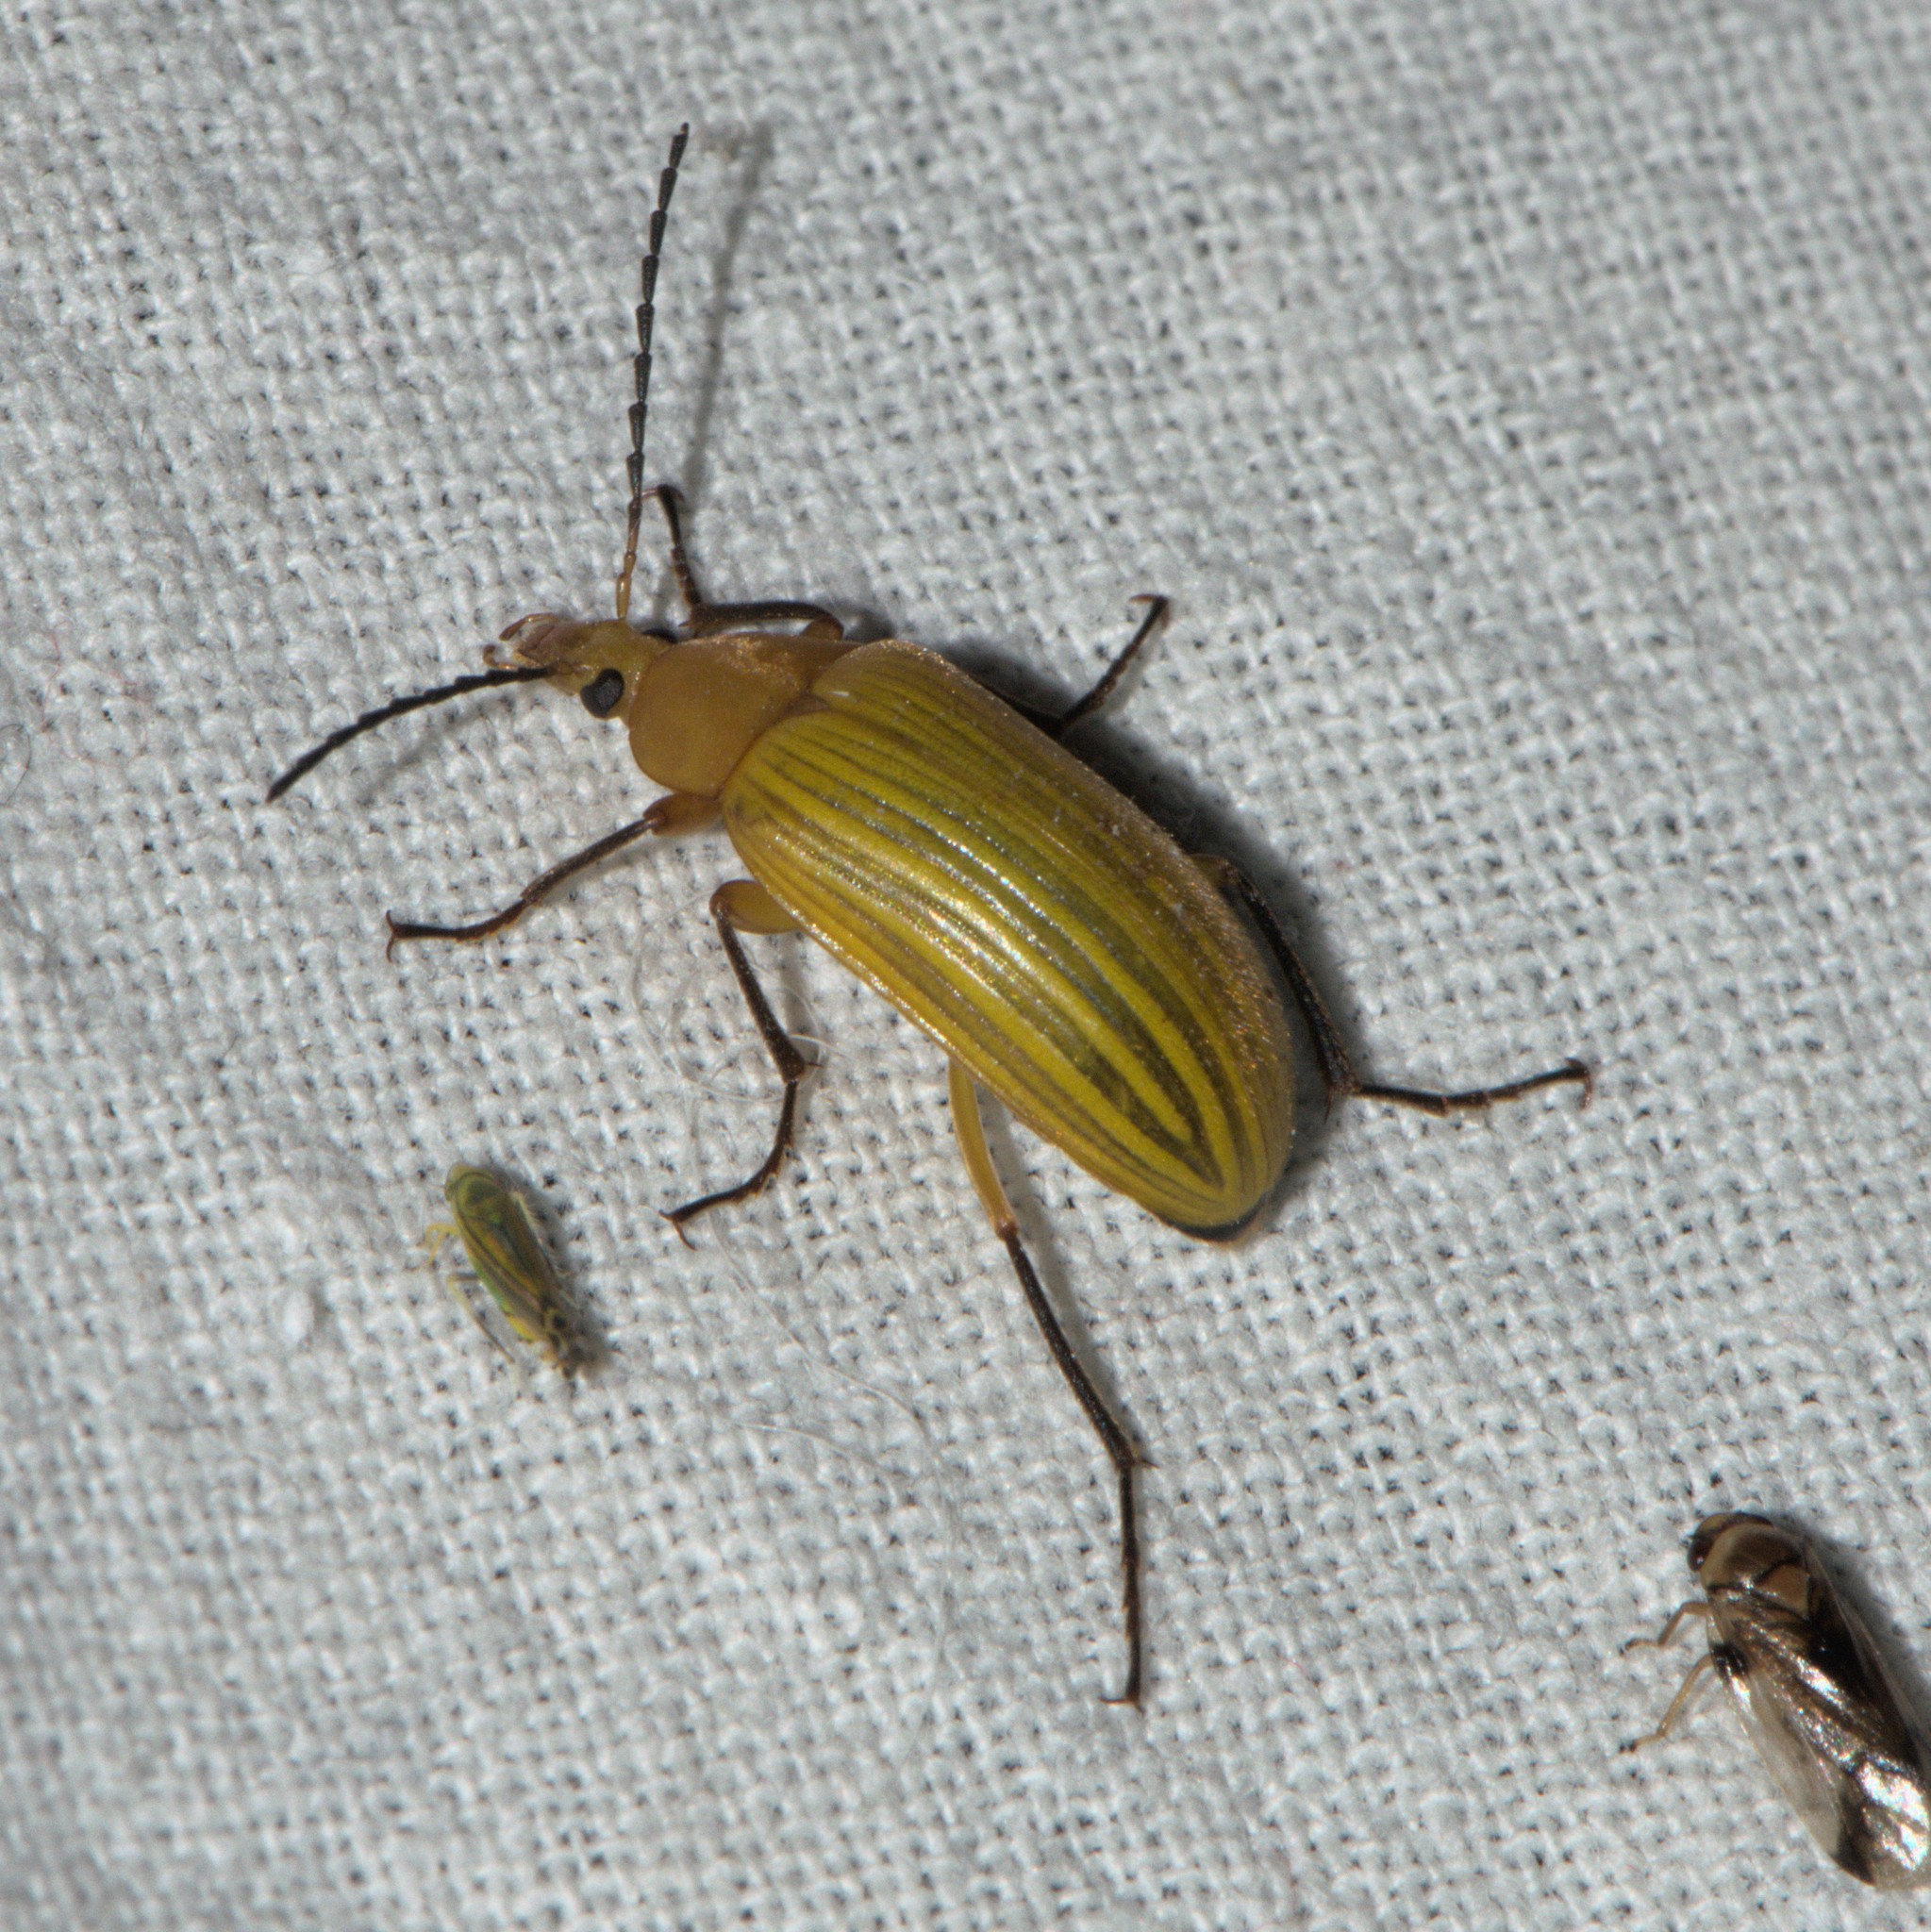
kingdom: Animalia
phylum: Arthropoda
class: Insecta
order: Coleoptera
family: Tenebrionidae
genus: Cistelomorpha
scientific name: Cistelomorpha
